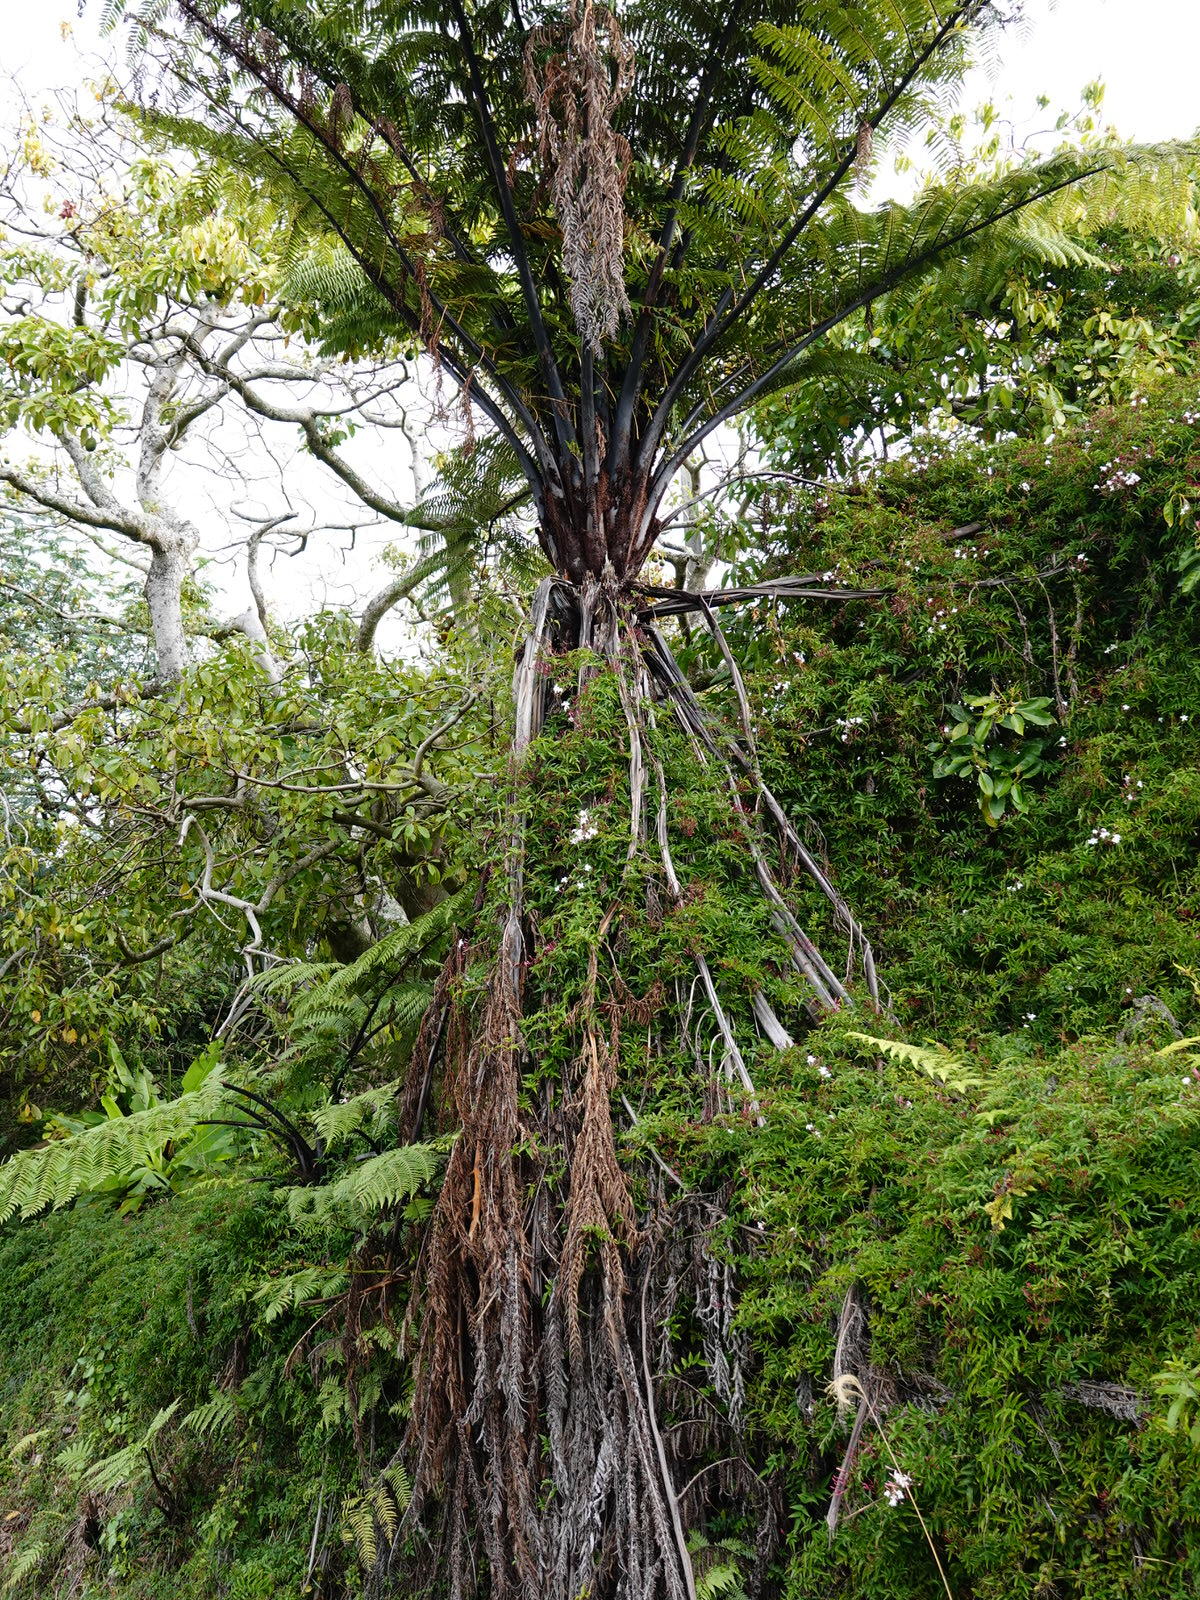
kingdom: Plantae
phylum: Tracheophyta
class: Magnoliopsida
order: Lamiales
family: Oleaceae
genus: Jasminum
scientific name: Jasminum polyanthum
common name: Pink jasmine
